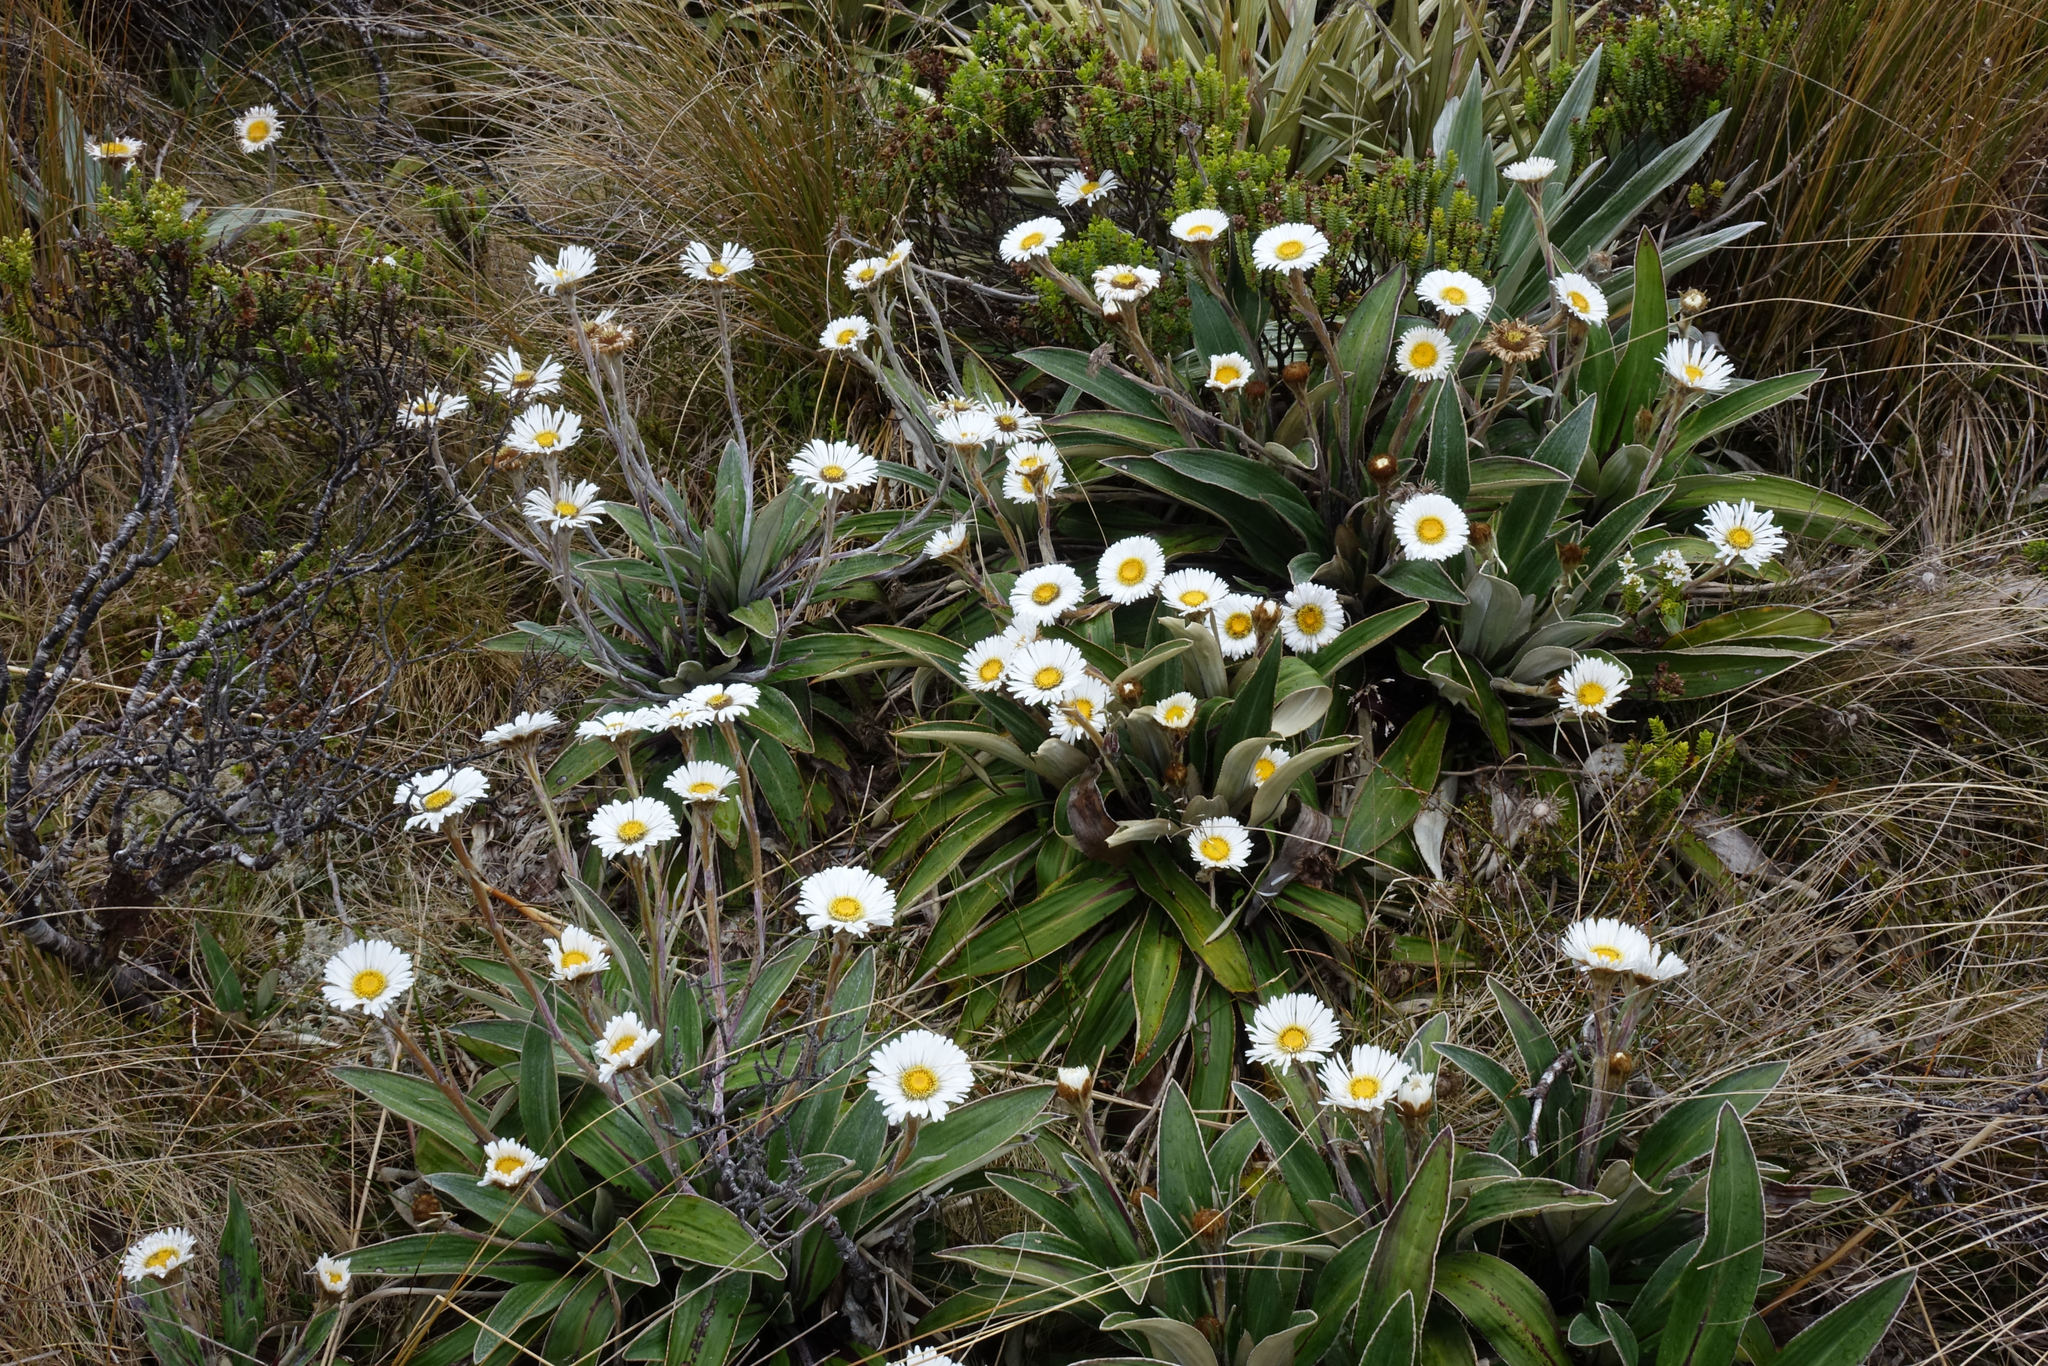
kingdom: Plantae
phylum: Tracheophyta
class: Magnoliopsida
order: Asterales
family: Asteraceae
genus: Celmisia
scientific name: Celmisia verbascifolia
